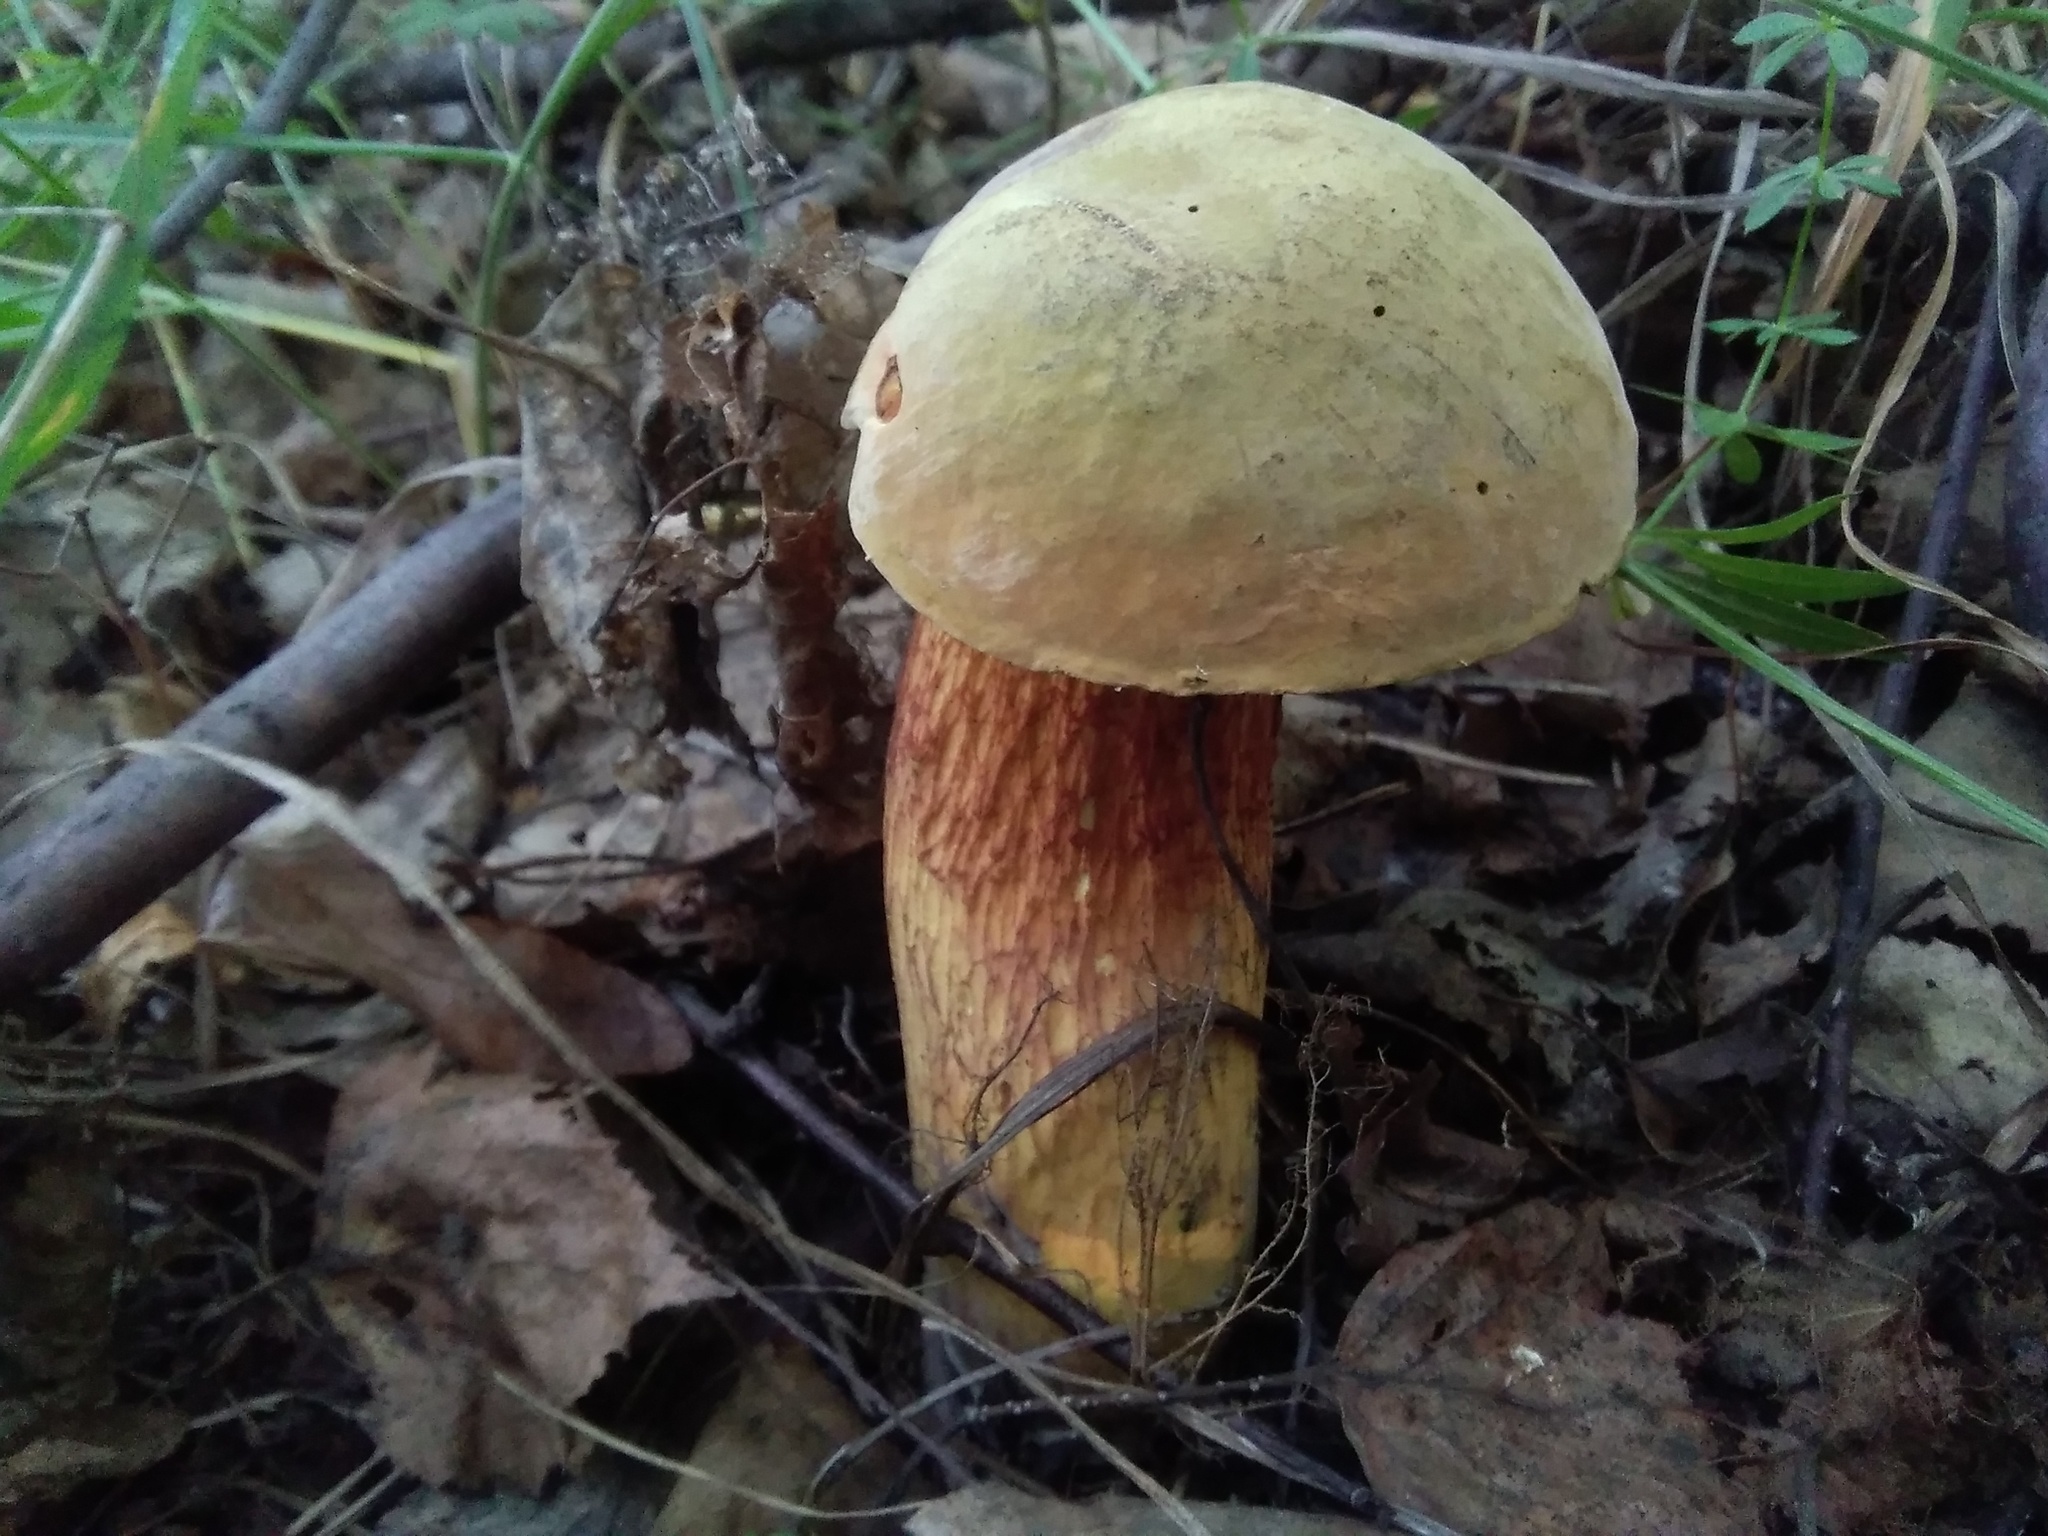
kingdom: Fungi
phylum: Basidiomycota
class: Agaricomycetes
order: Boletales
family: Boletaceae
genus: Suillellus
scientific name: Suillellus luridus
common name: Lurid bolete
